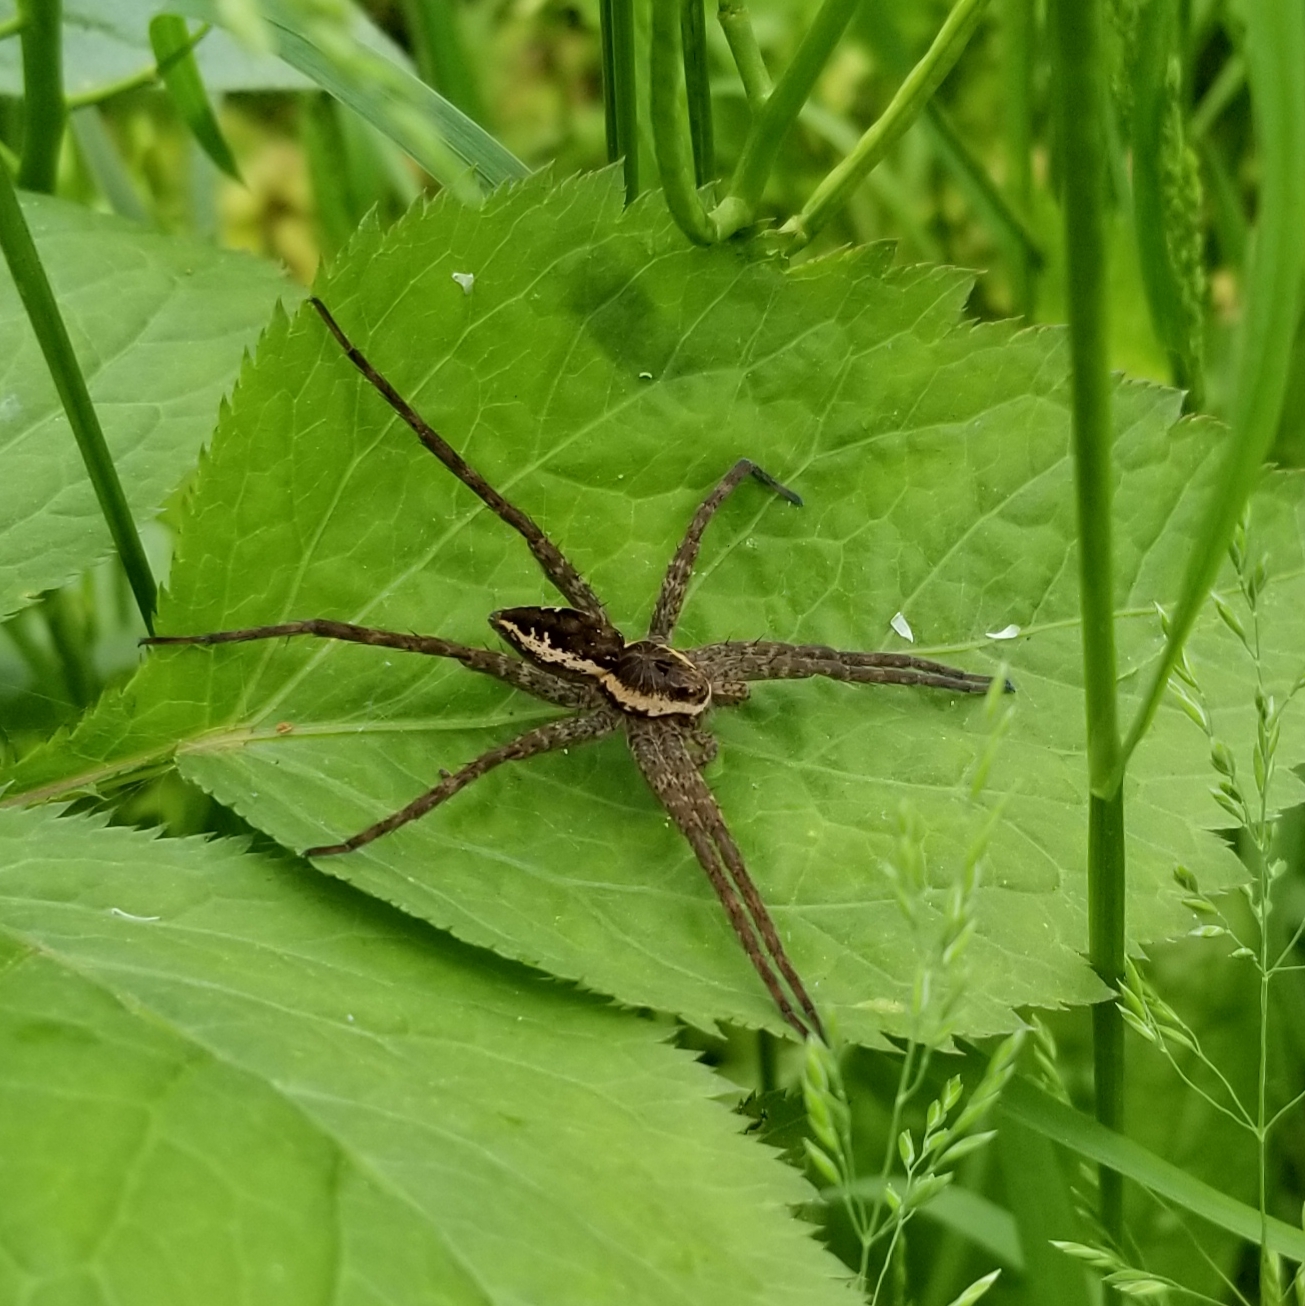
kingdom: Animalia
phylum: Arthropoda
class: Arachnida
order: Araneae
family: Pisauridae
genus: Dolomedes
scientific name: Dolomedes vittatus
